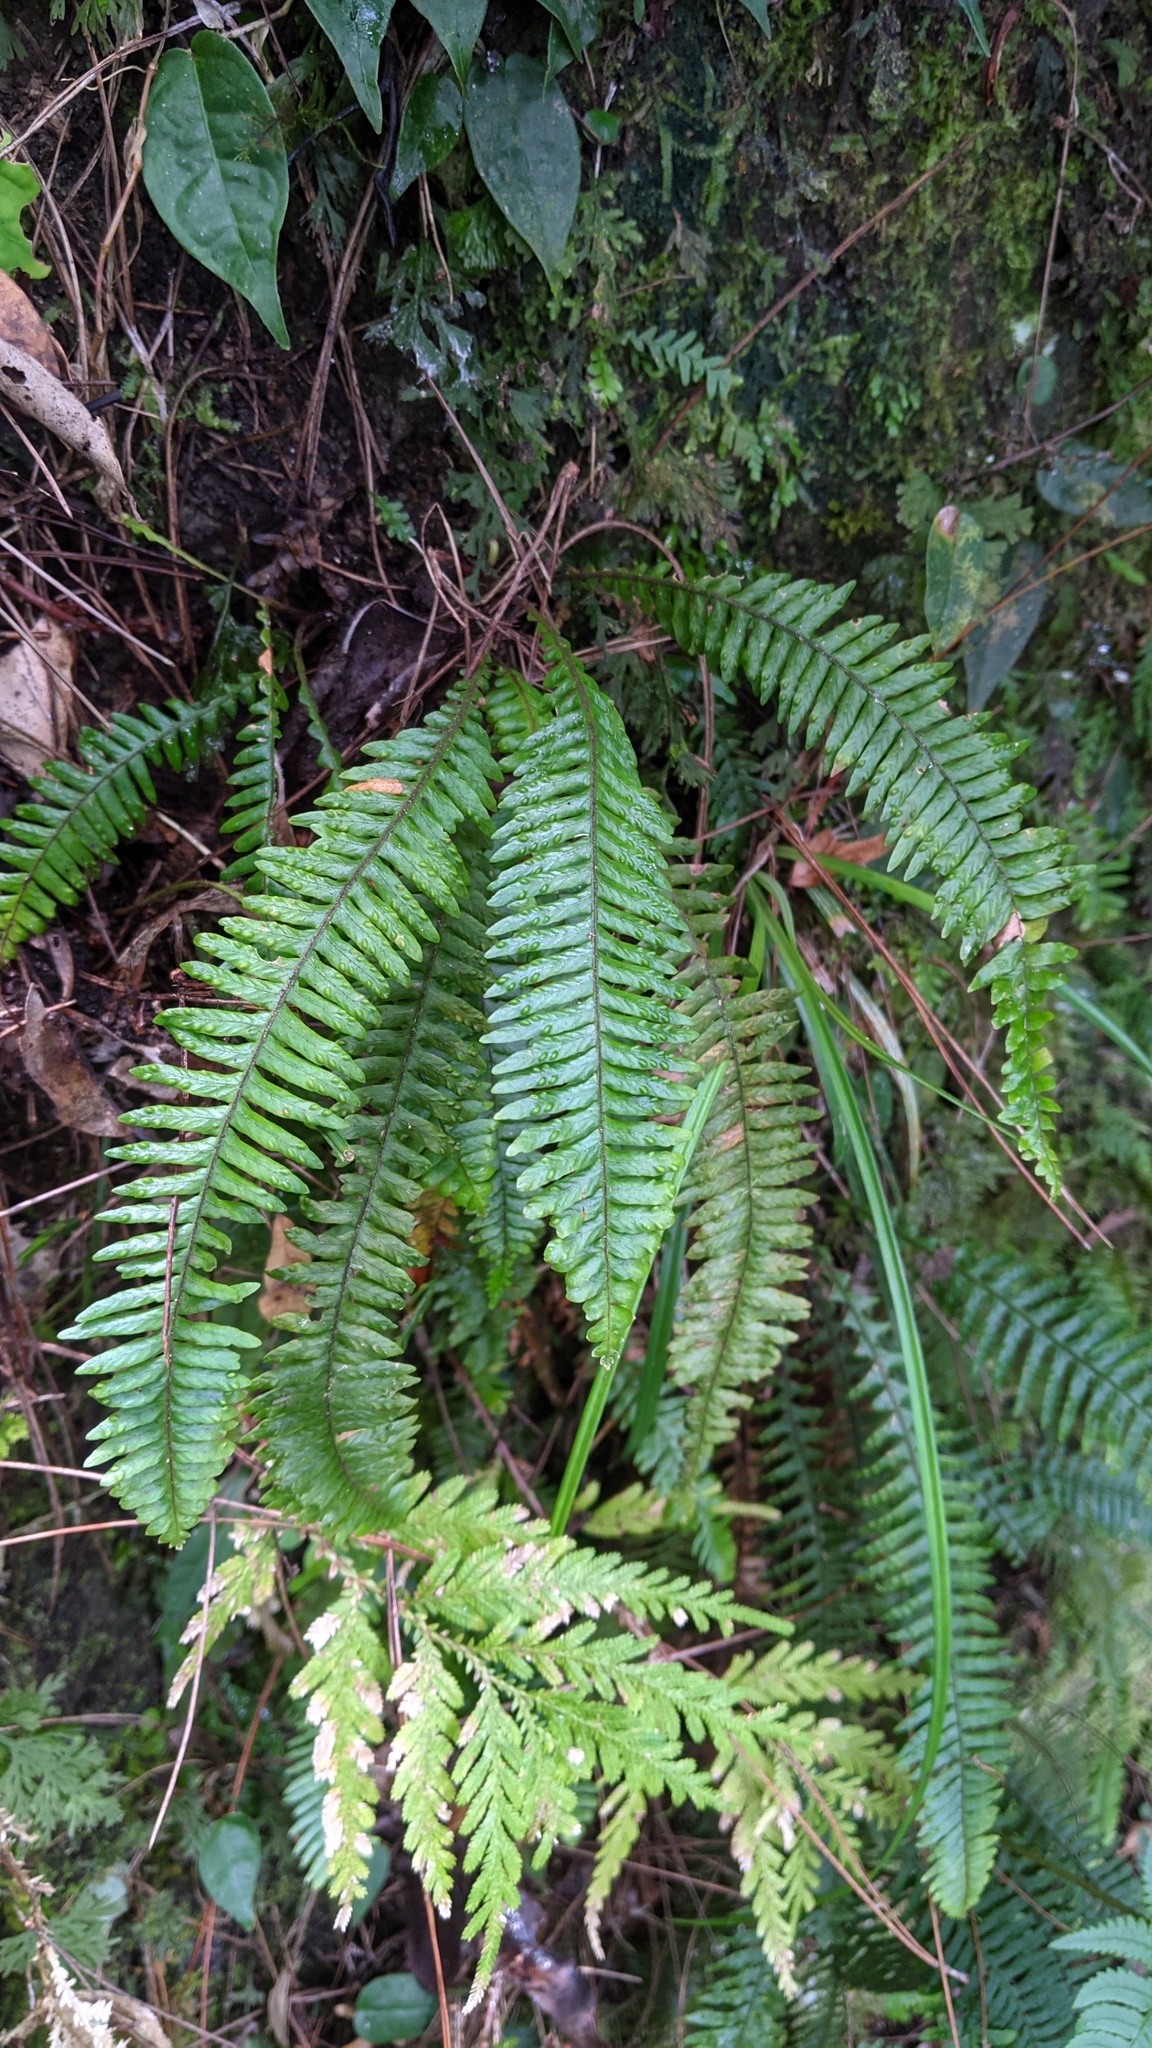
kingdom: Plantae
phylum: Tracheophyta
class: Polypodiopsida
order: Polypodiales
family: Polypodiaceae
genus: Prosaptia
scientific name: Prosaptia obliquata
